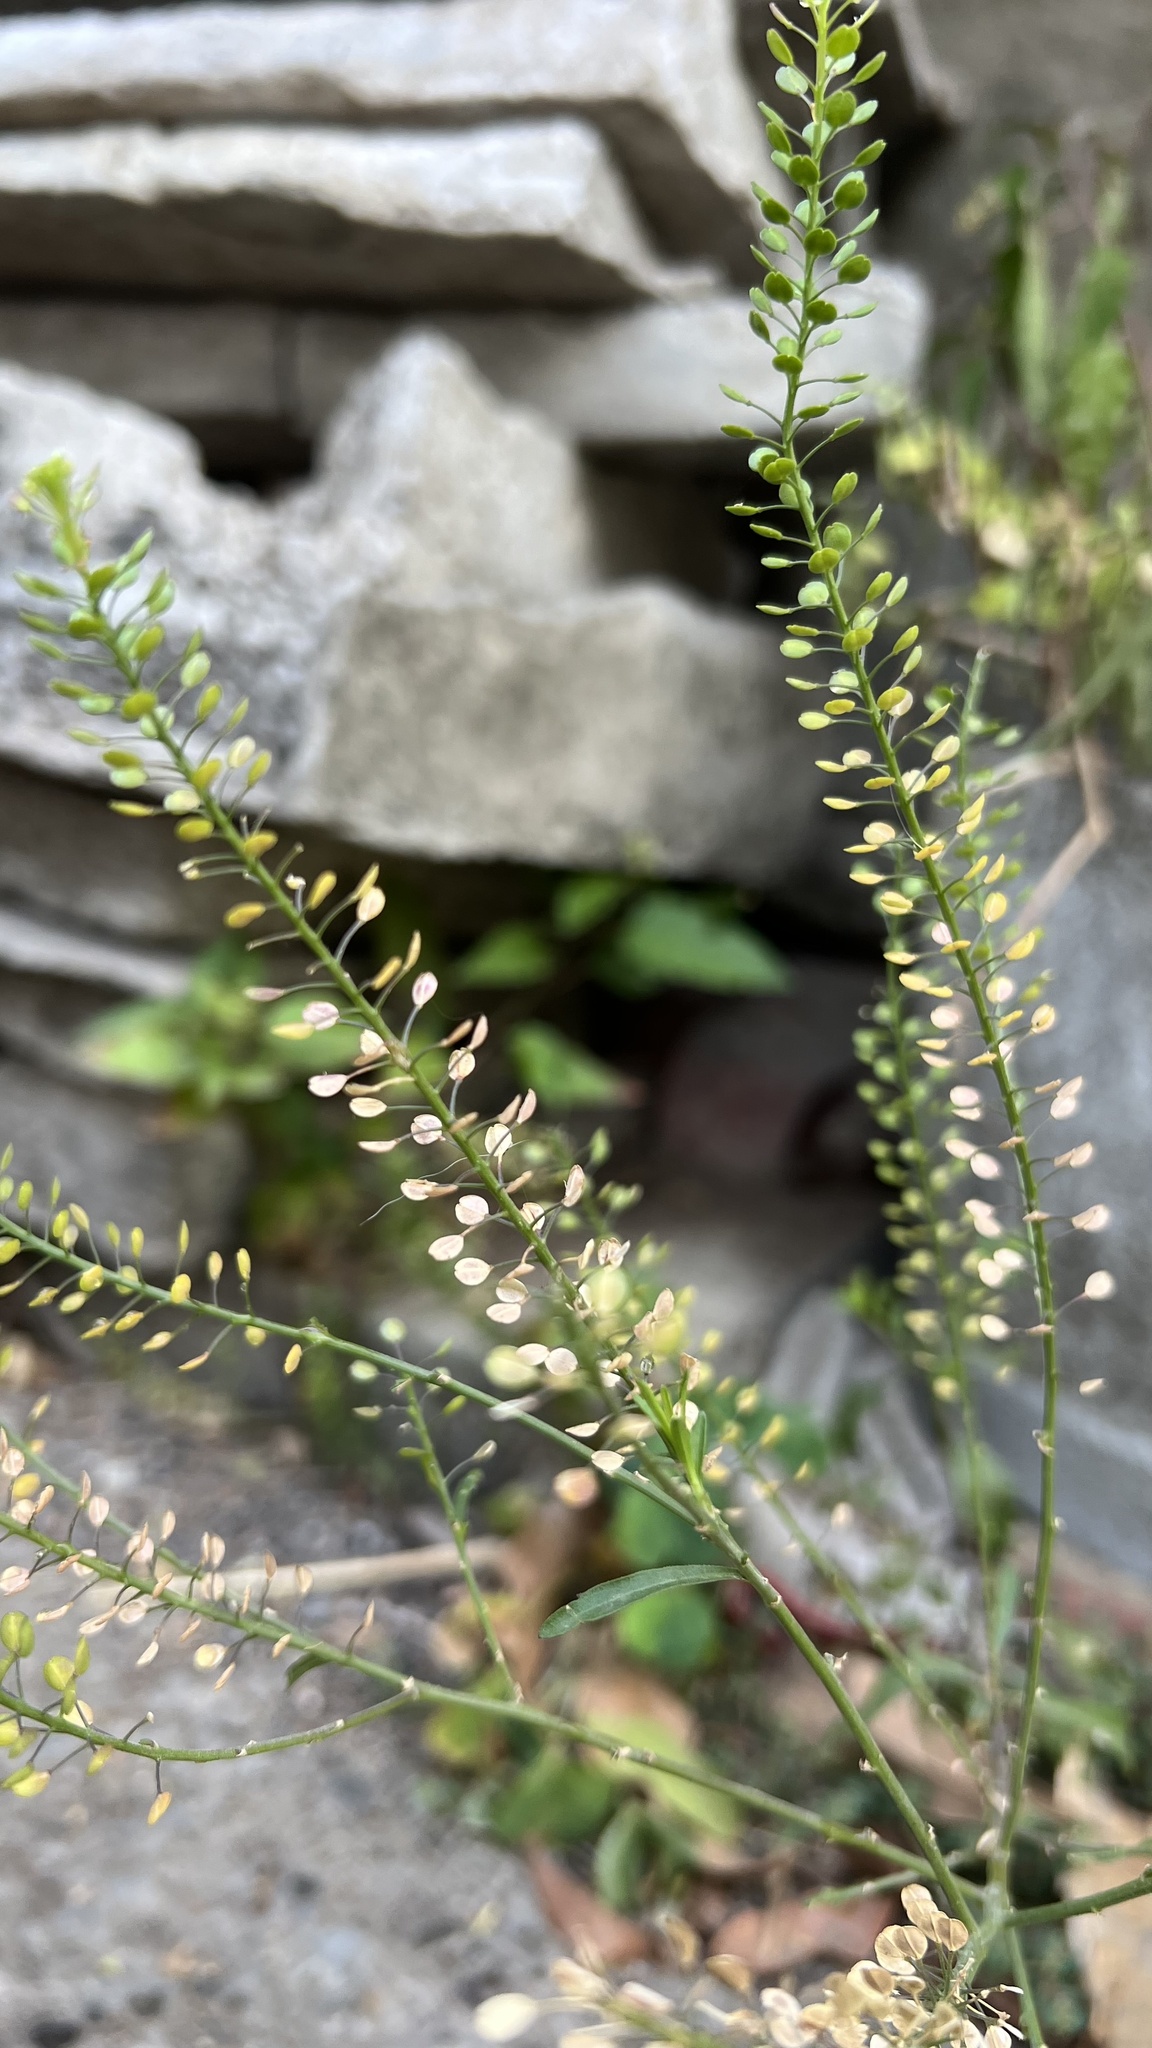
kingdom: Plantae
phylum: Tracheophyta
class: Magnoliopsida
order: Brassicales
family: Brassicaceae
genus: Lepidium
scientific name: Lepidium virginicum
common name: Least pepperwort
